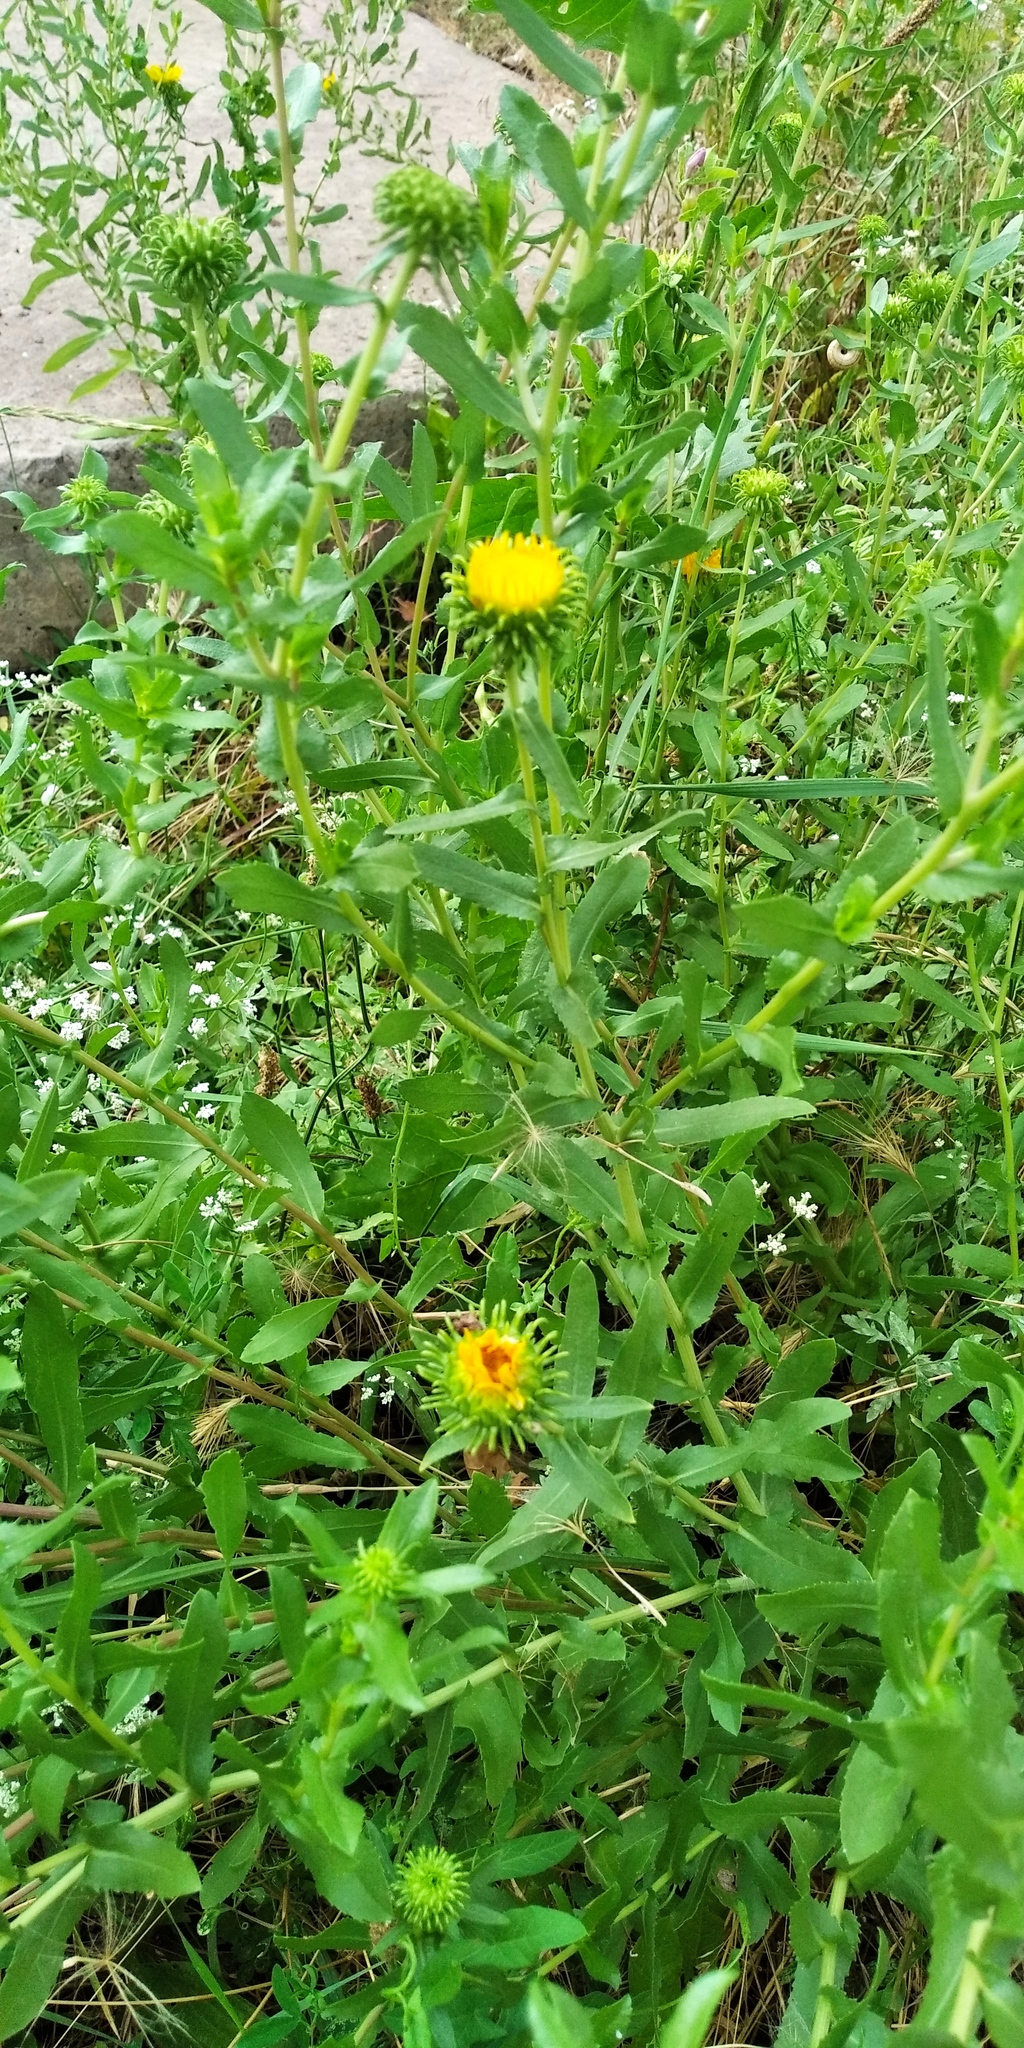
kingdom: Plantae
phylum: Tracheophyta
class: Magnoliopsida
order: Asterales
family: Asteraceae
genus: Grindelia
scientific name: Grindelia squarrosa
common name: Curly-cup gumweed
